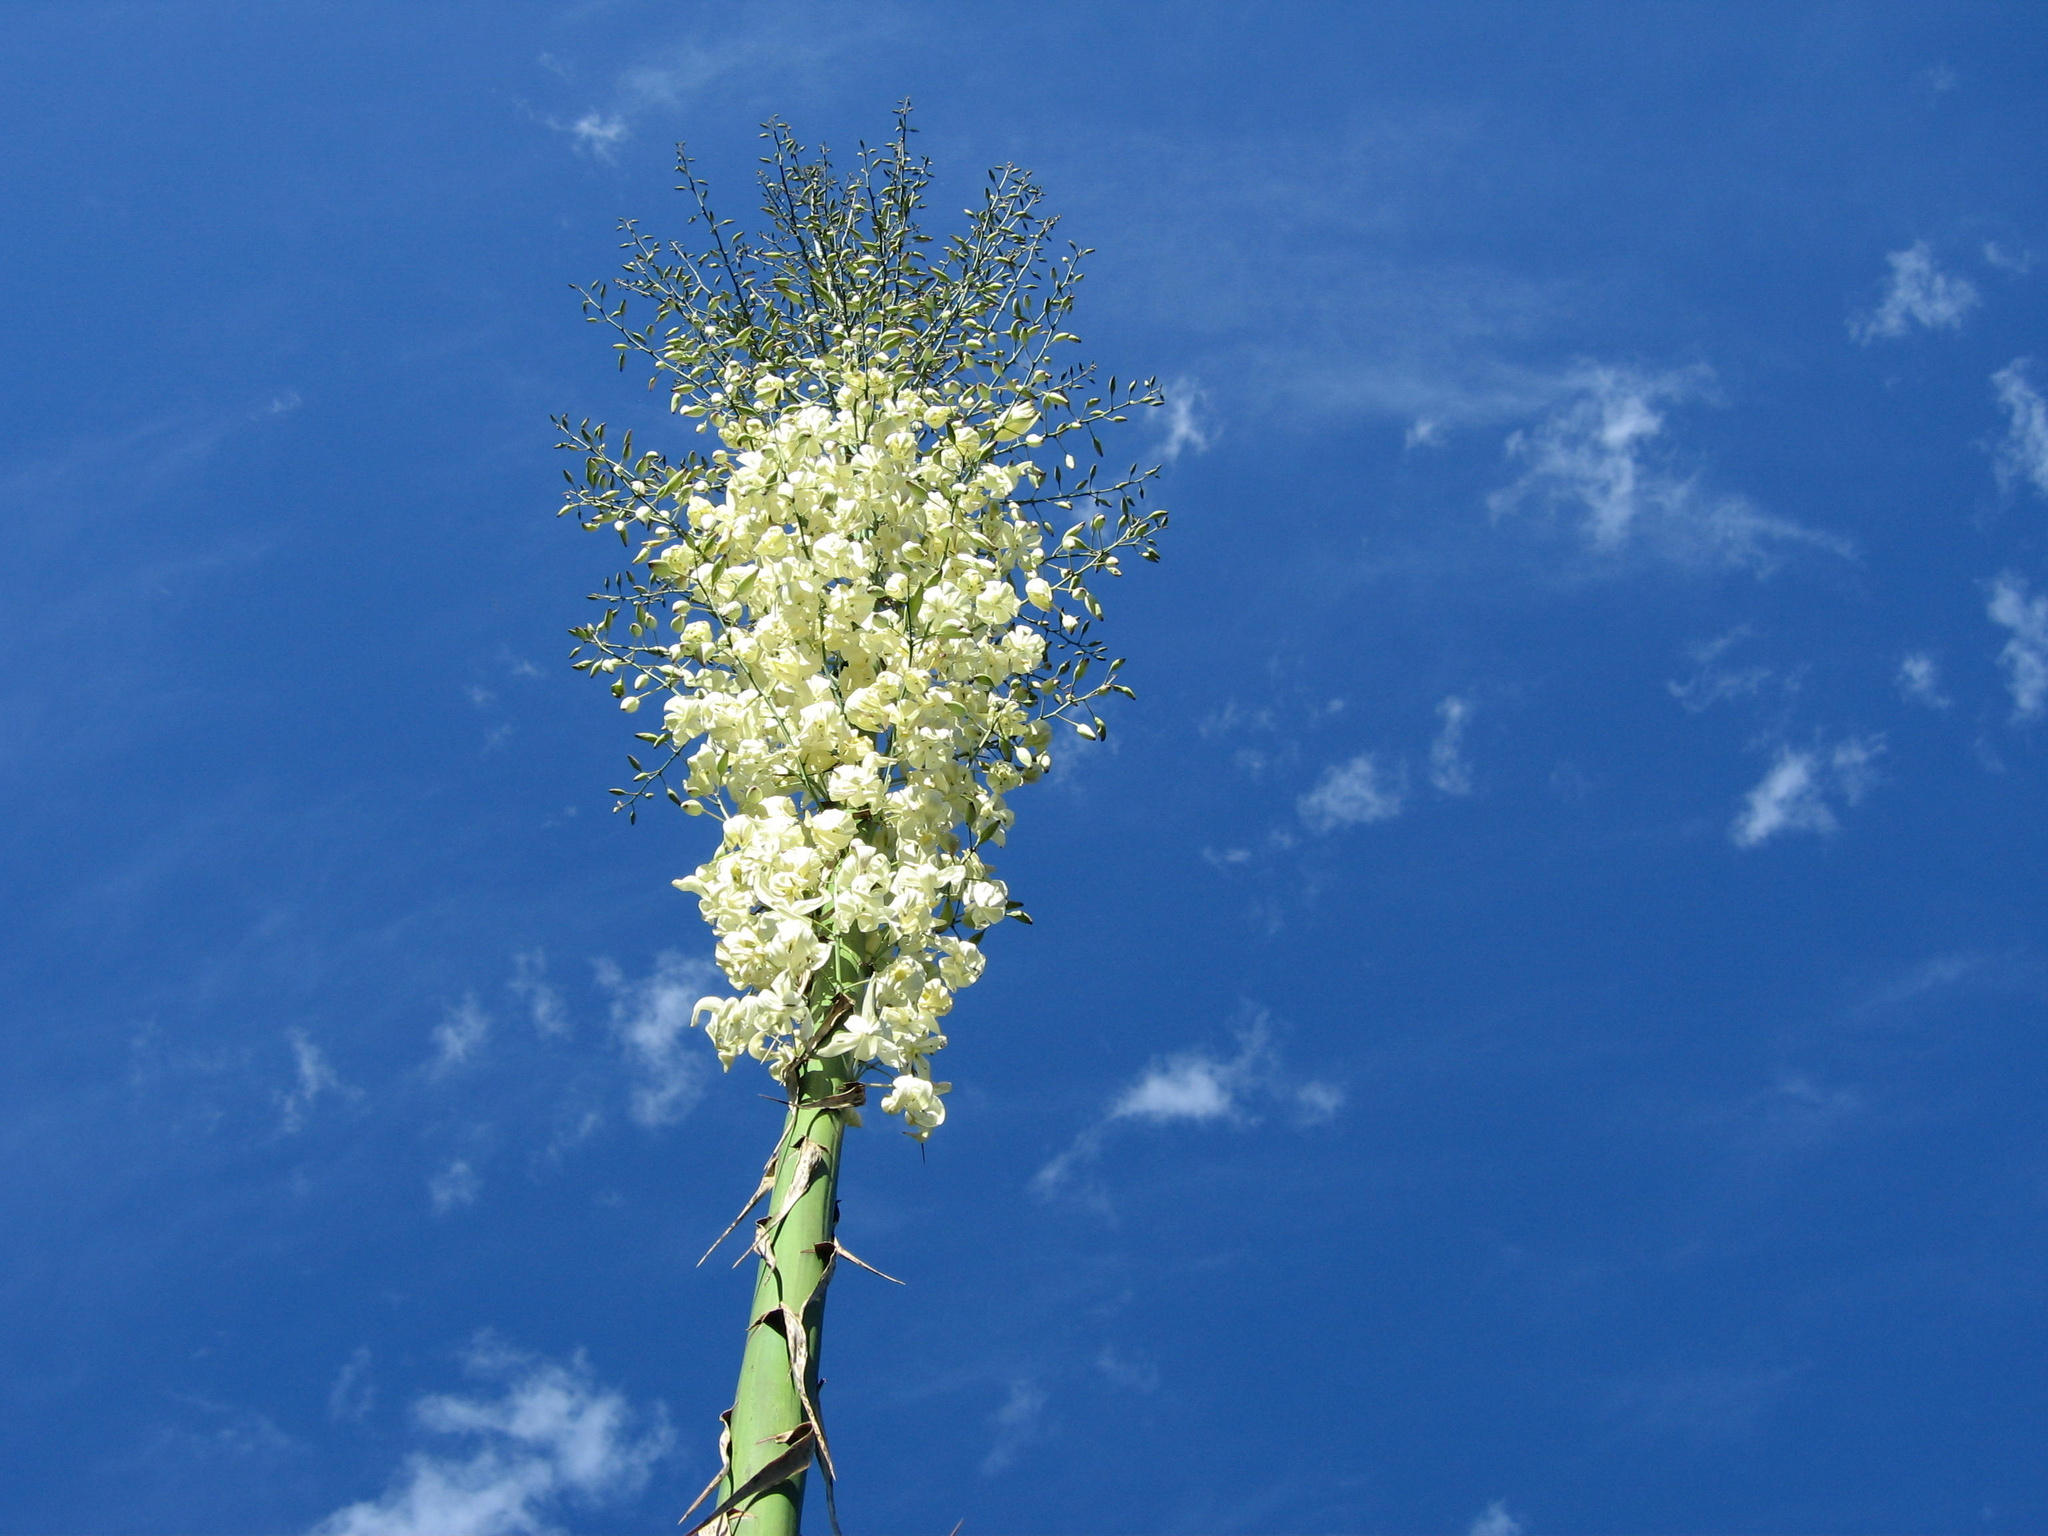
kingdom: Plantae
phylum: Tracheophyta
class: Liliopsida
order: Asparagales
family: Asparagaceae
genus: Hesperoyucca
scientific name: Hesperoyucca whipplei
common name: Our lord's-candle
